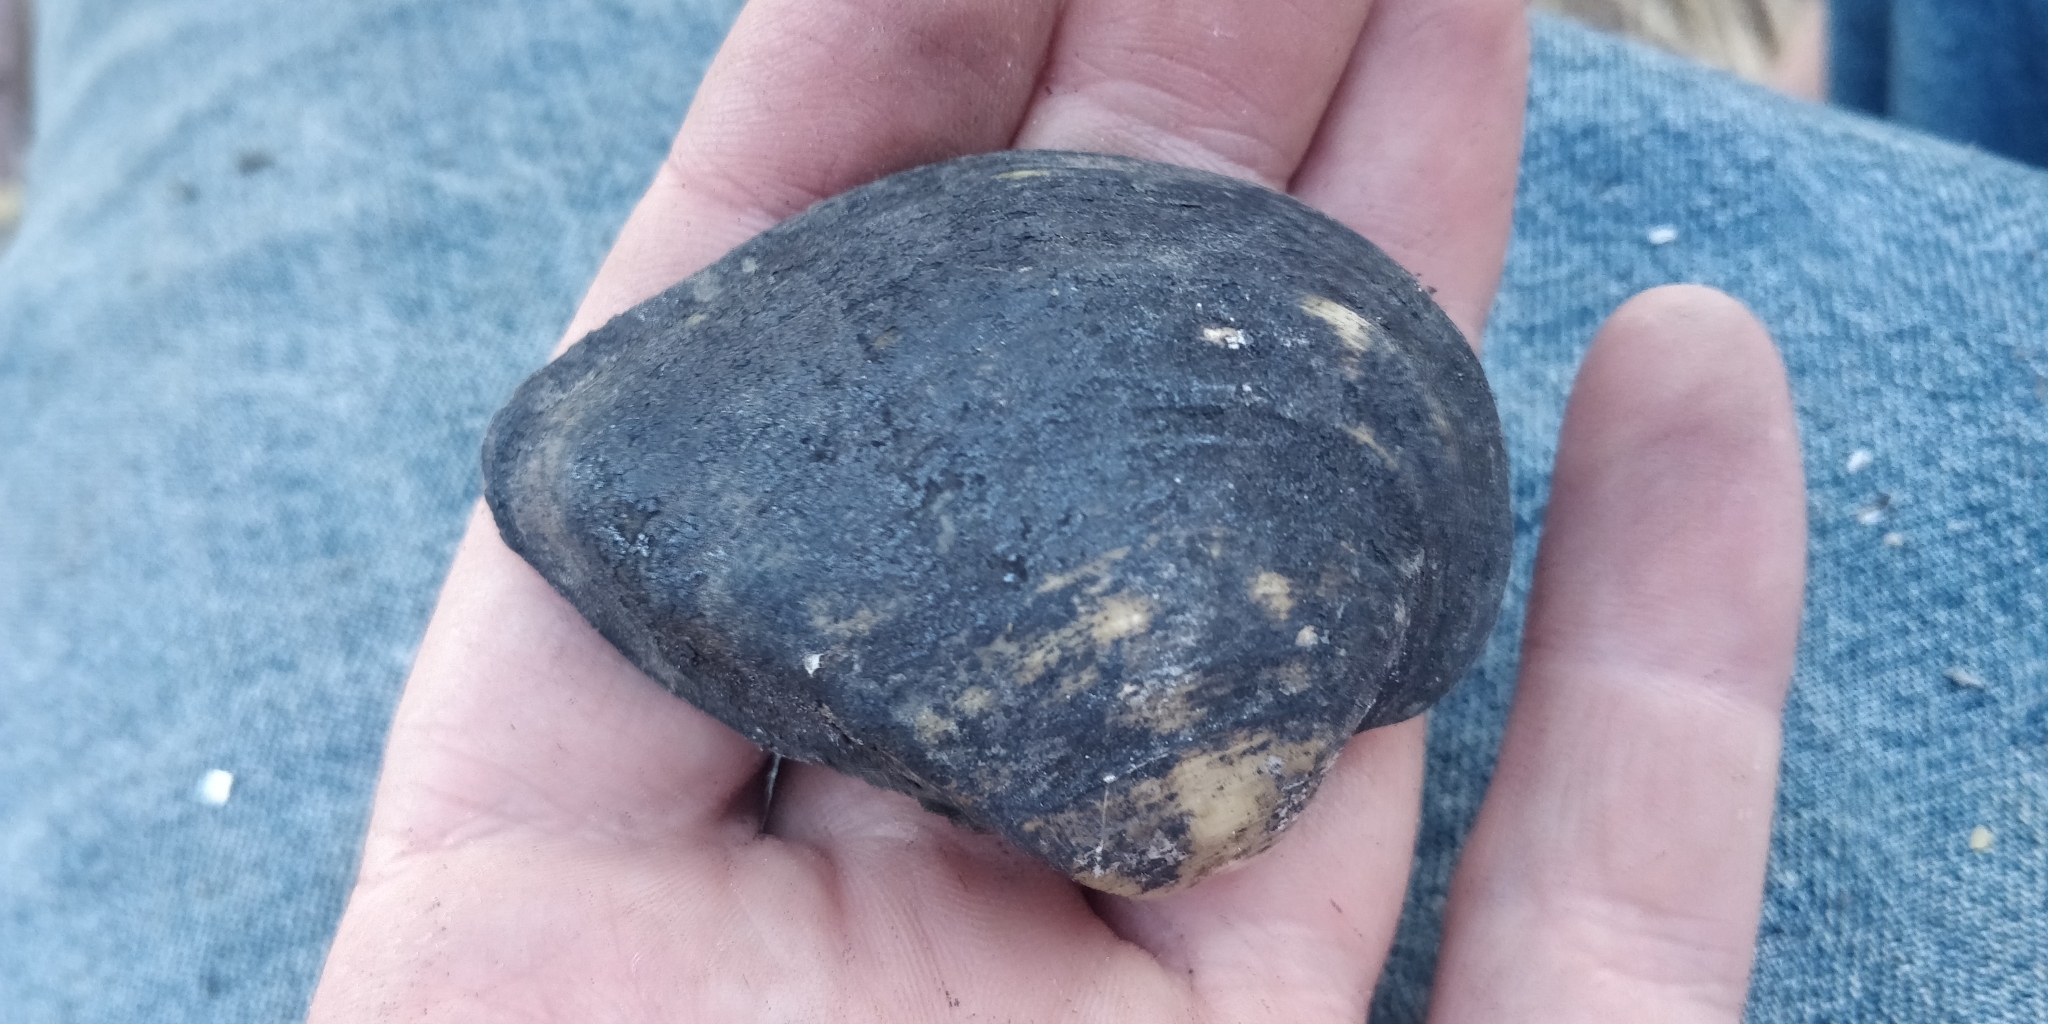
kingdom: Animalia
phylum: Mollusca
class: Bivalvia
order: Unionida
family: Unionidae
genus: Truncilla
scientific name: Truncilla truncata
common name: Deertoe
